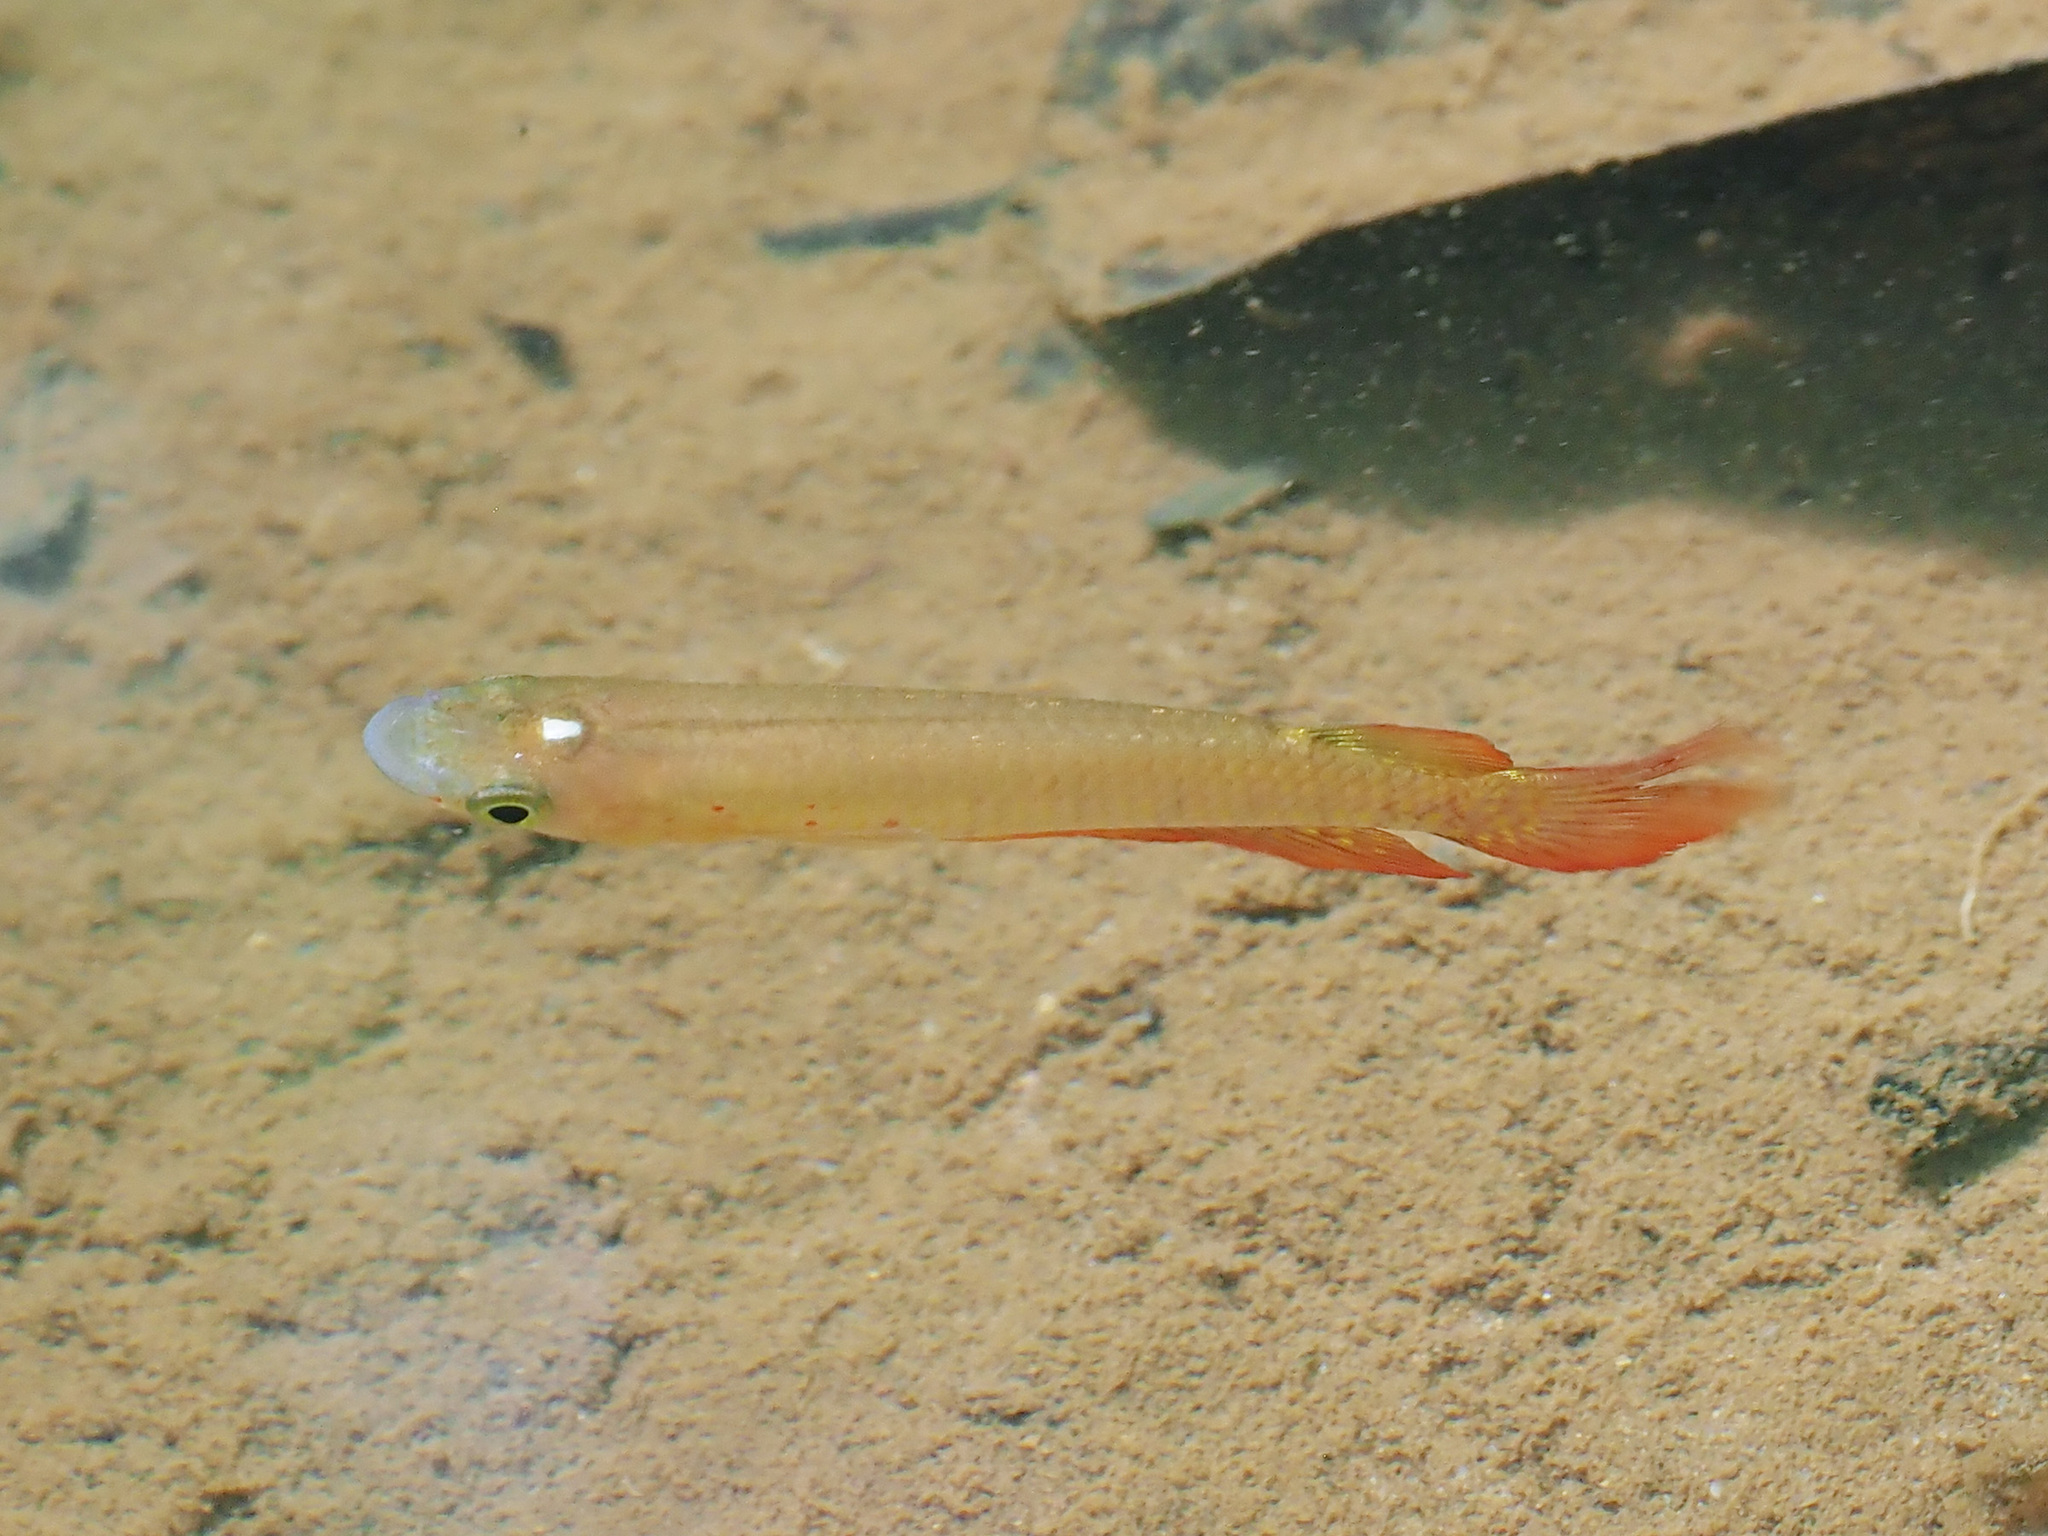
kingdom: Animalia
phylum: Chordata
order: Cyprinodontiformes
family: Aplocheilidae
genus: Aplocheilus
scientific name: Aplocheilus lineatus
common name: Striped panchax
